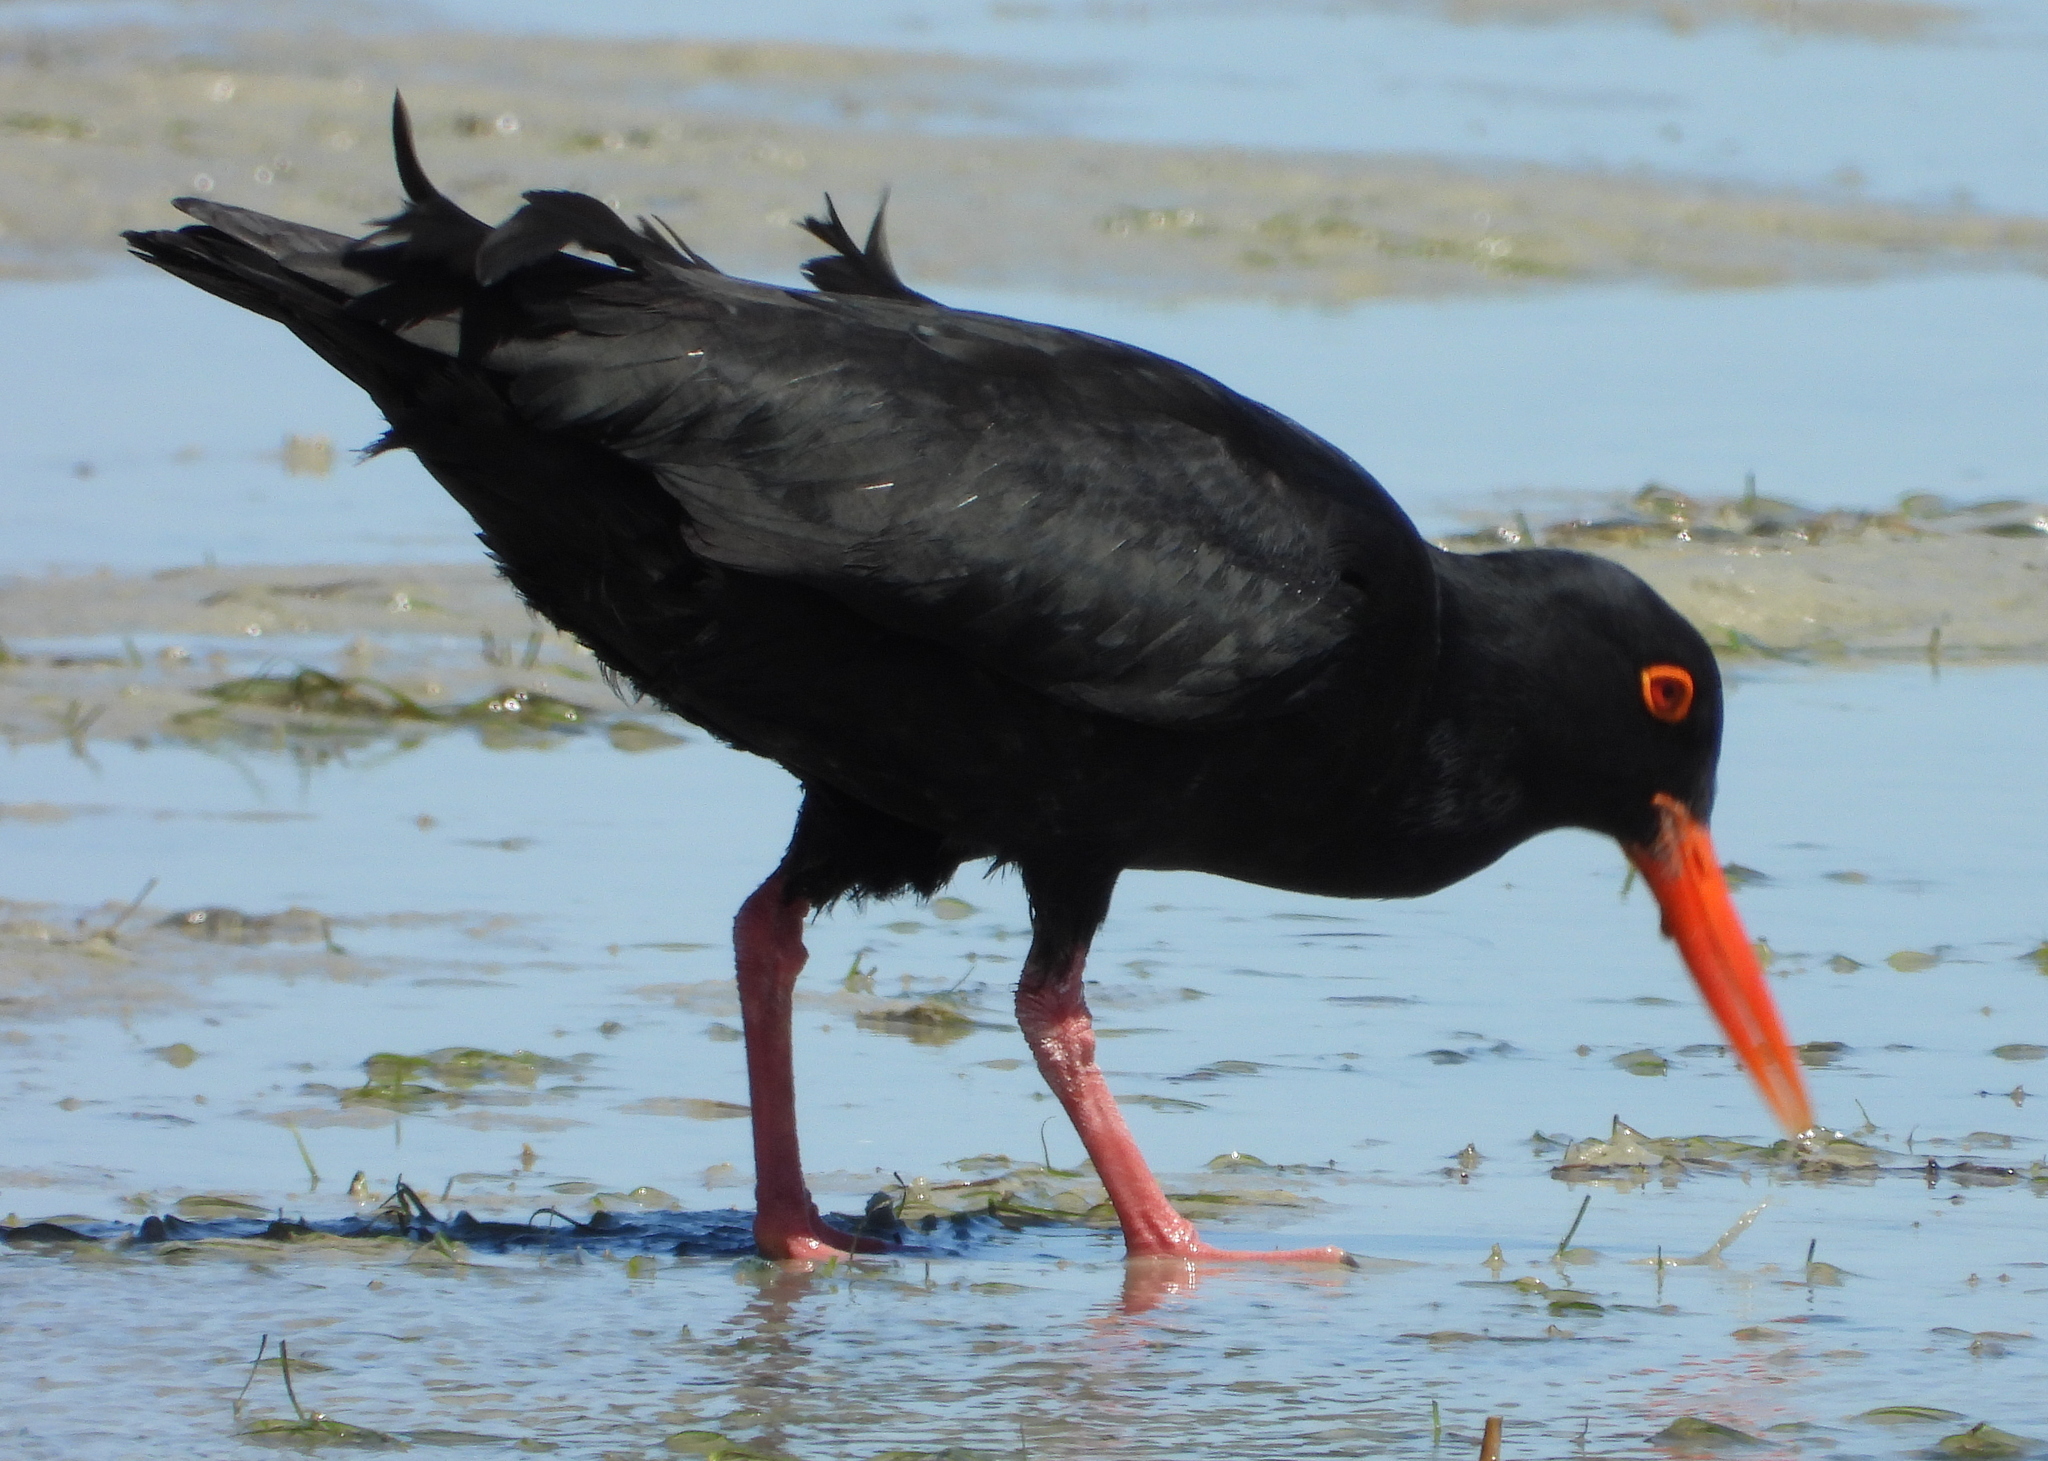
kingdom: Animalia
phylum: Chordata
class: Aves
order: Charadriiformes
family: Haematopodidae
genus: Haematopus
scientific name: Haematopus moquini
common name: African oystercatcher
